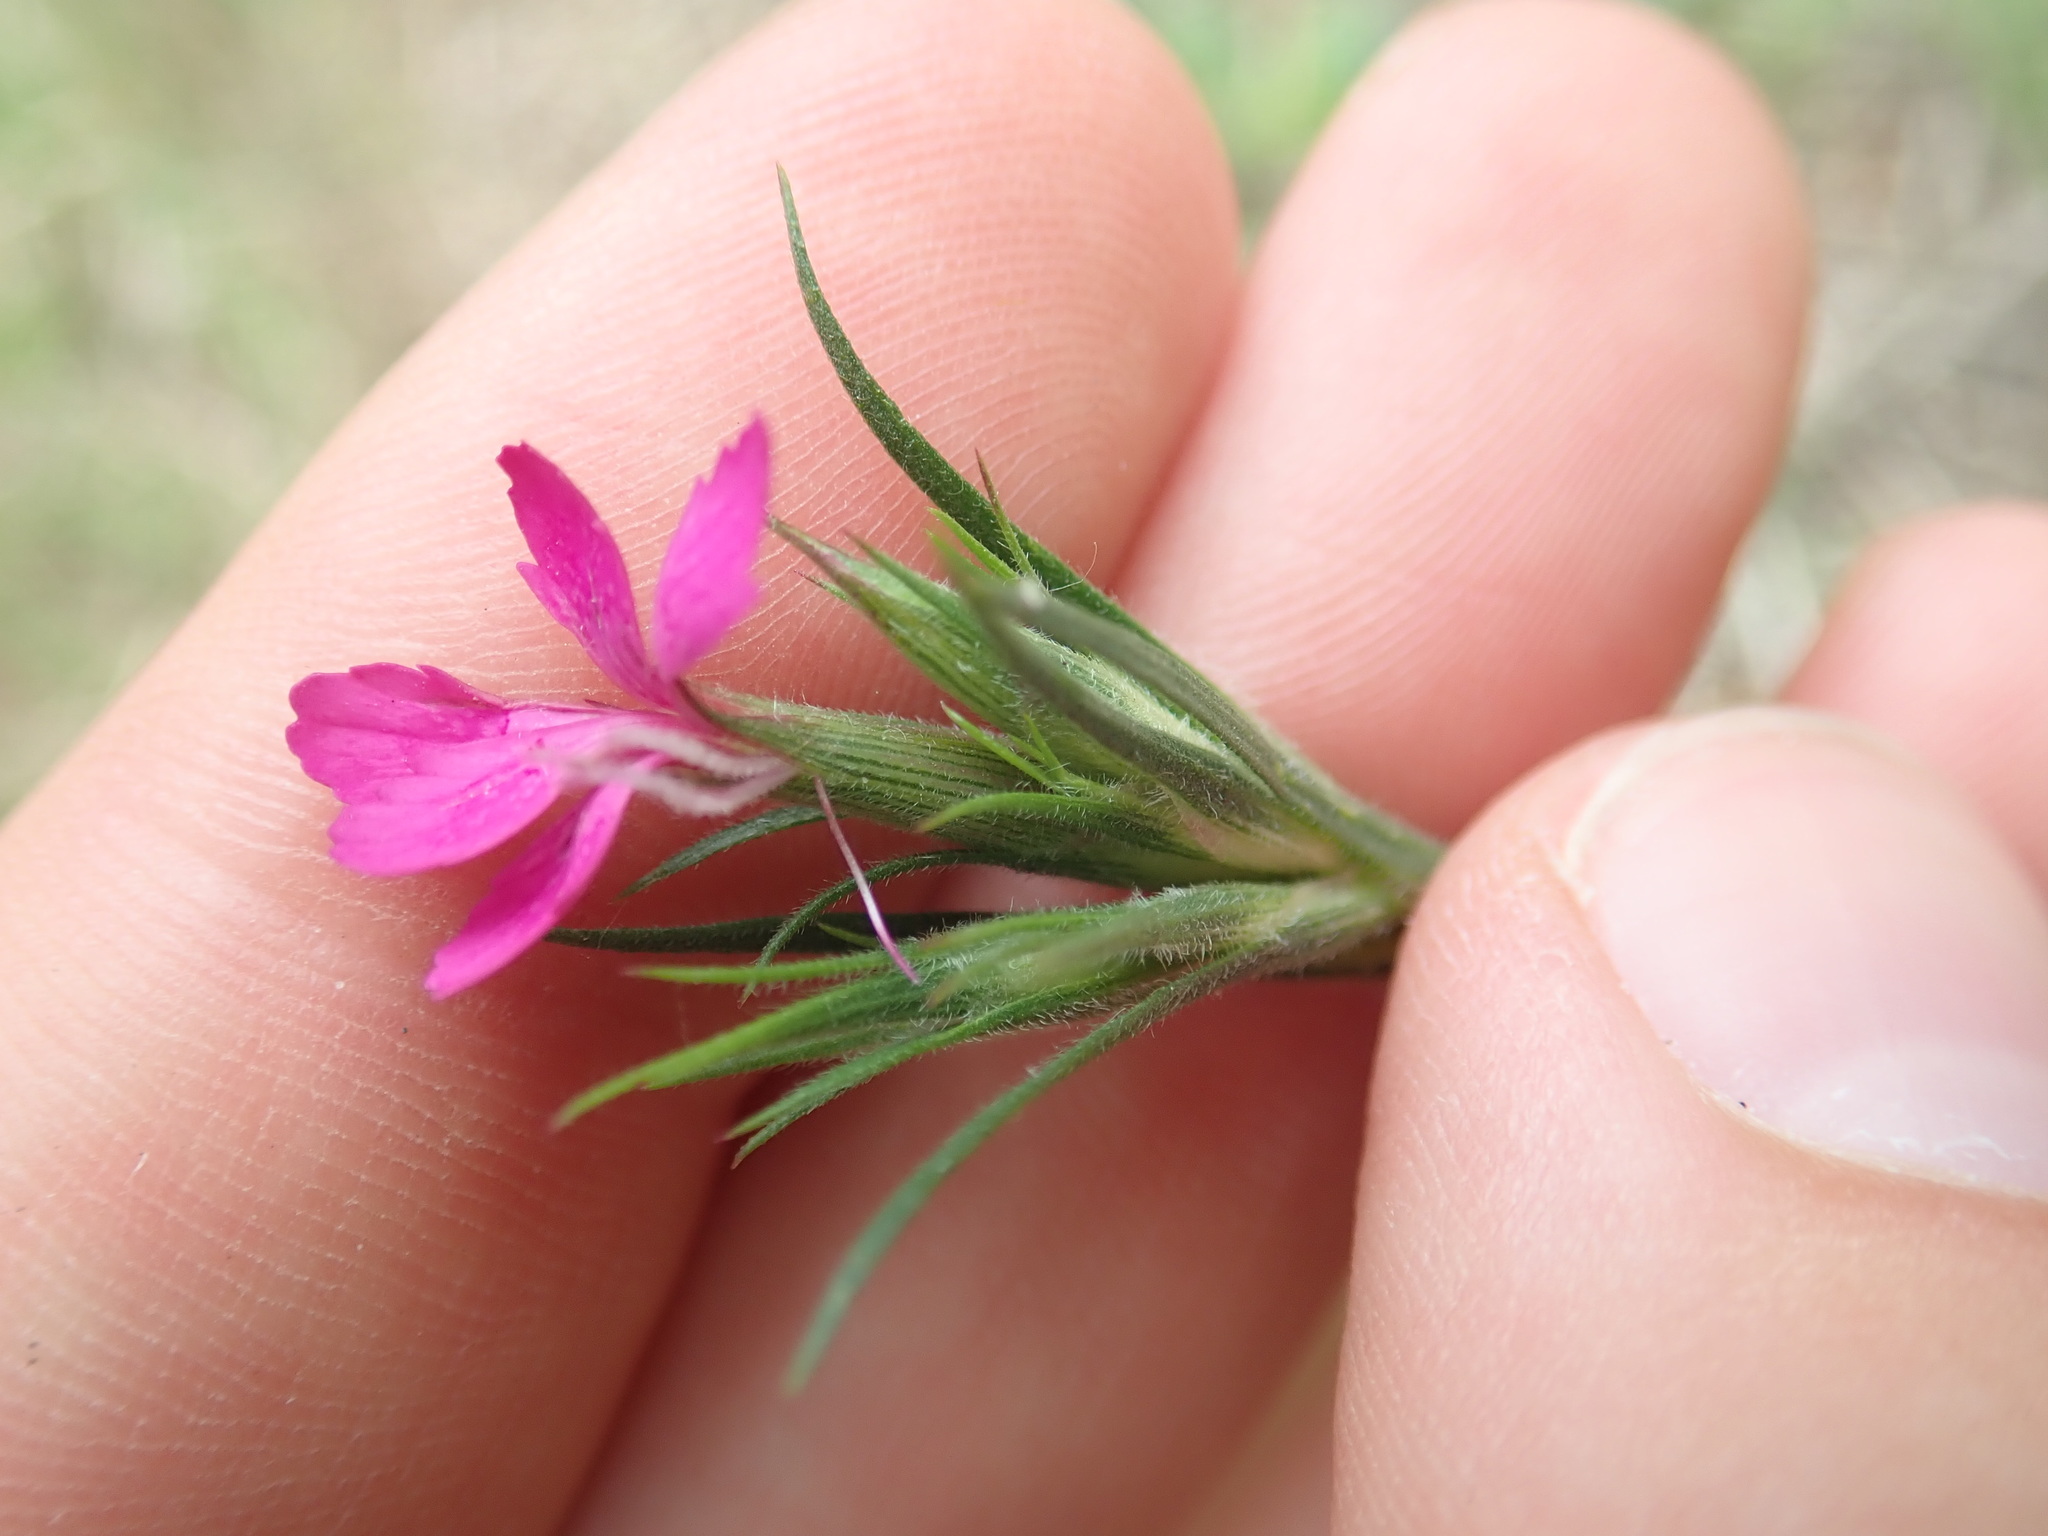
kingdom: Plantae
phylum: Tracheophyta
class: Magnoliopsida
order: Caryophyllales
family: Caryophyllaceae
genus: Dianthus
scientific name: Dianthus armeria
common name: Deptford pink
